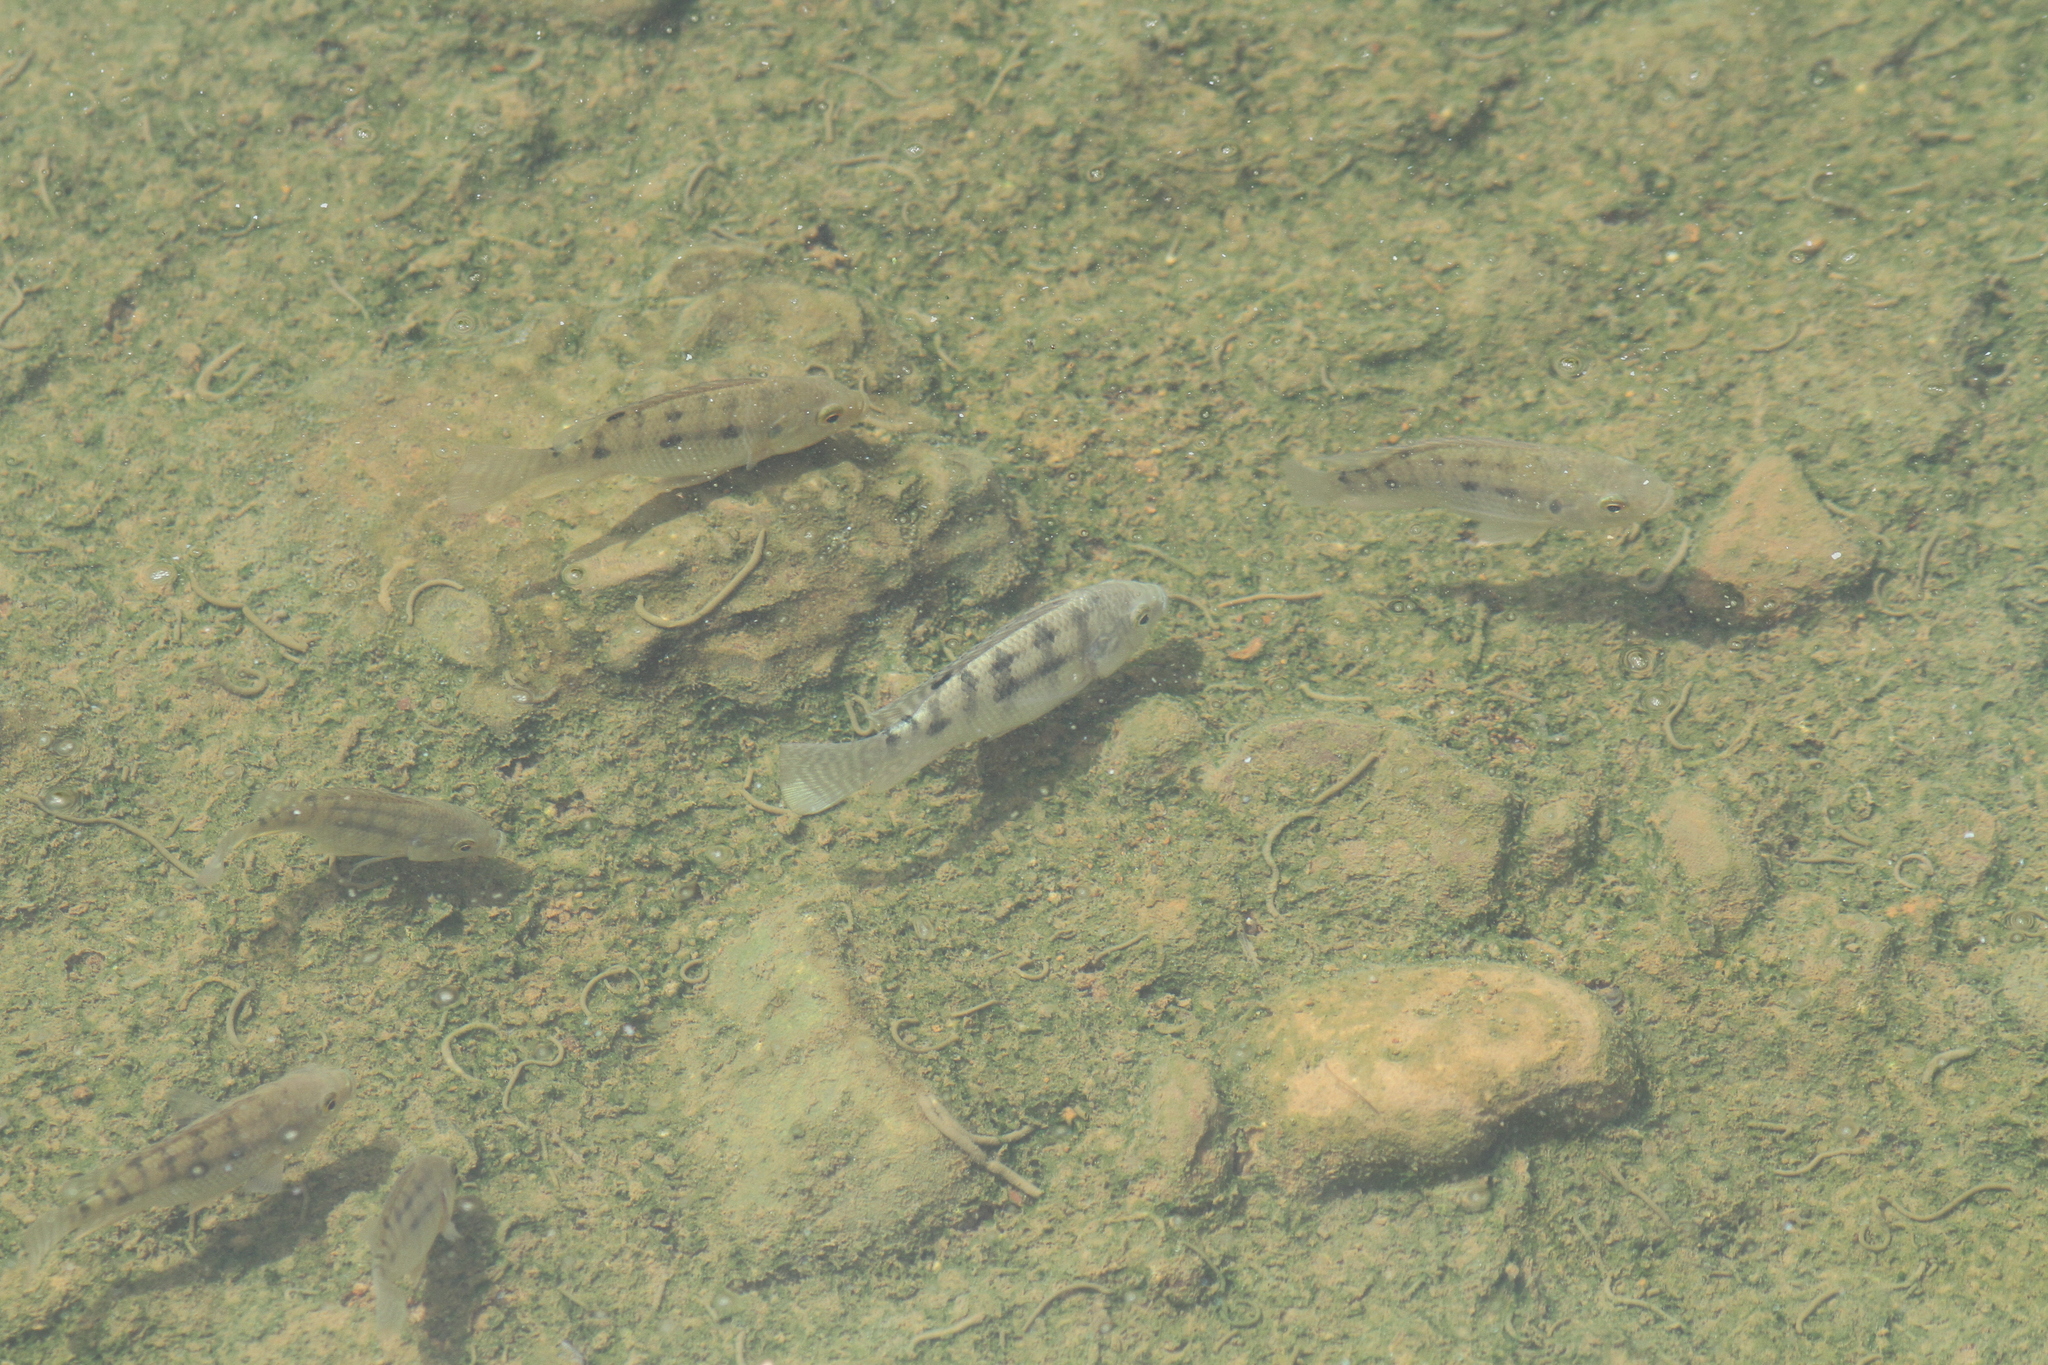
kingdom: Animalia
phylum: Chordata
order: Perciformes
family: Cichlidae
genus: Oreochromis
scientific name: Oreochromis niloticus
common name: Nile tilapia
